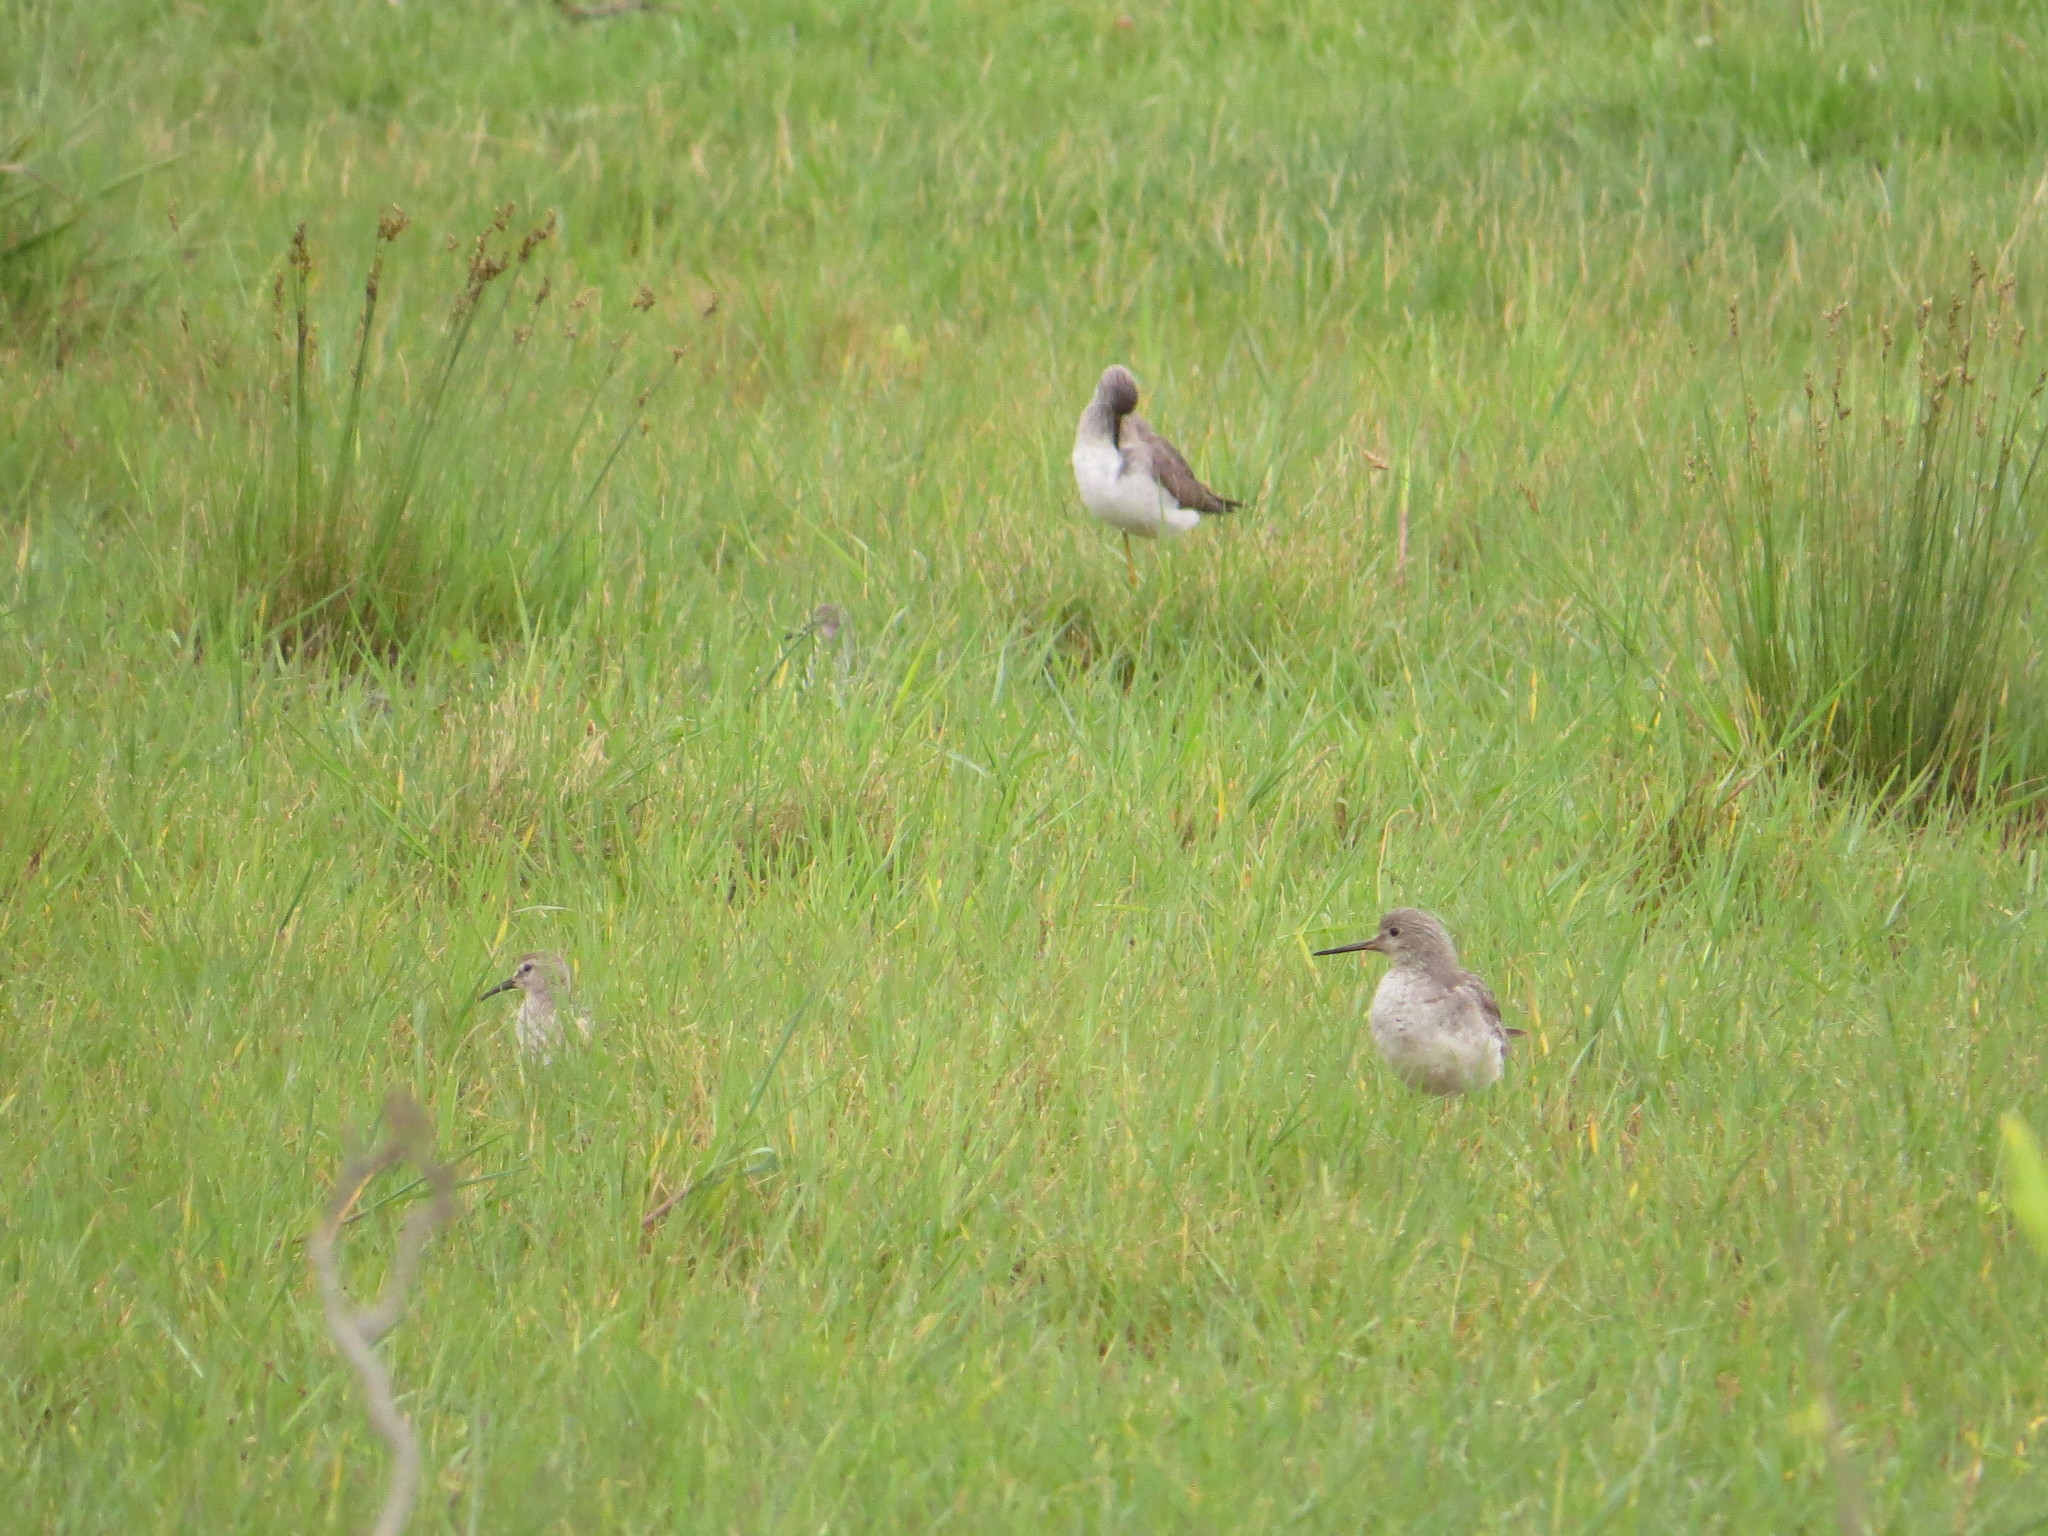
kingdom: Animalia
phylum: Chordata
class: Aves
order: Charadriiformes
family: Scolopacidae
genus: Tringa
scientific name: Tringa melanoleuca
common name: Greater yellowlegs
